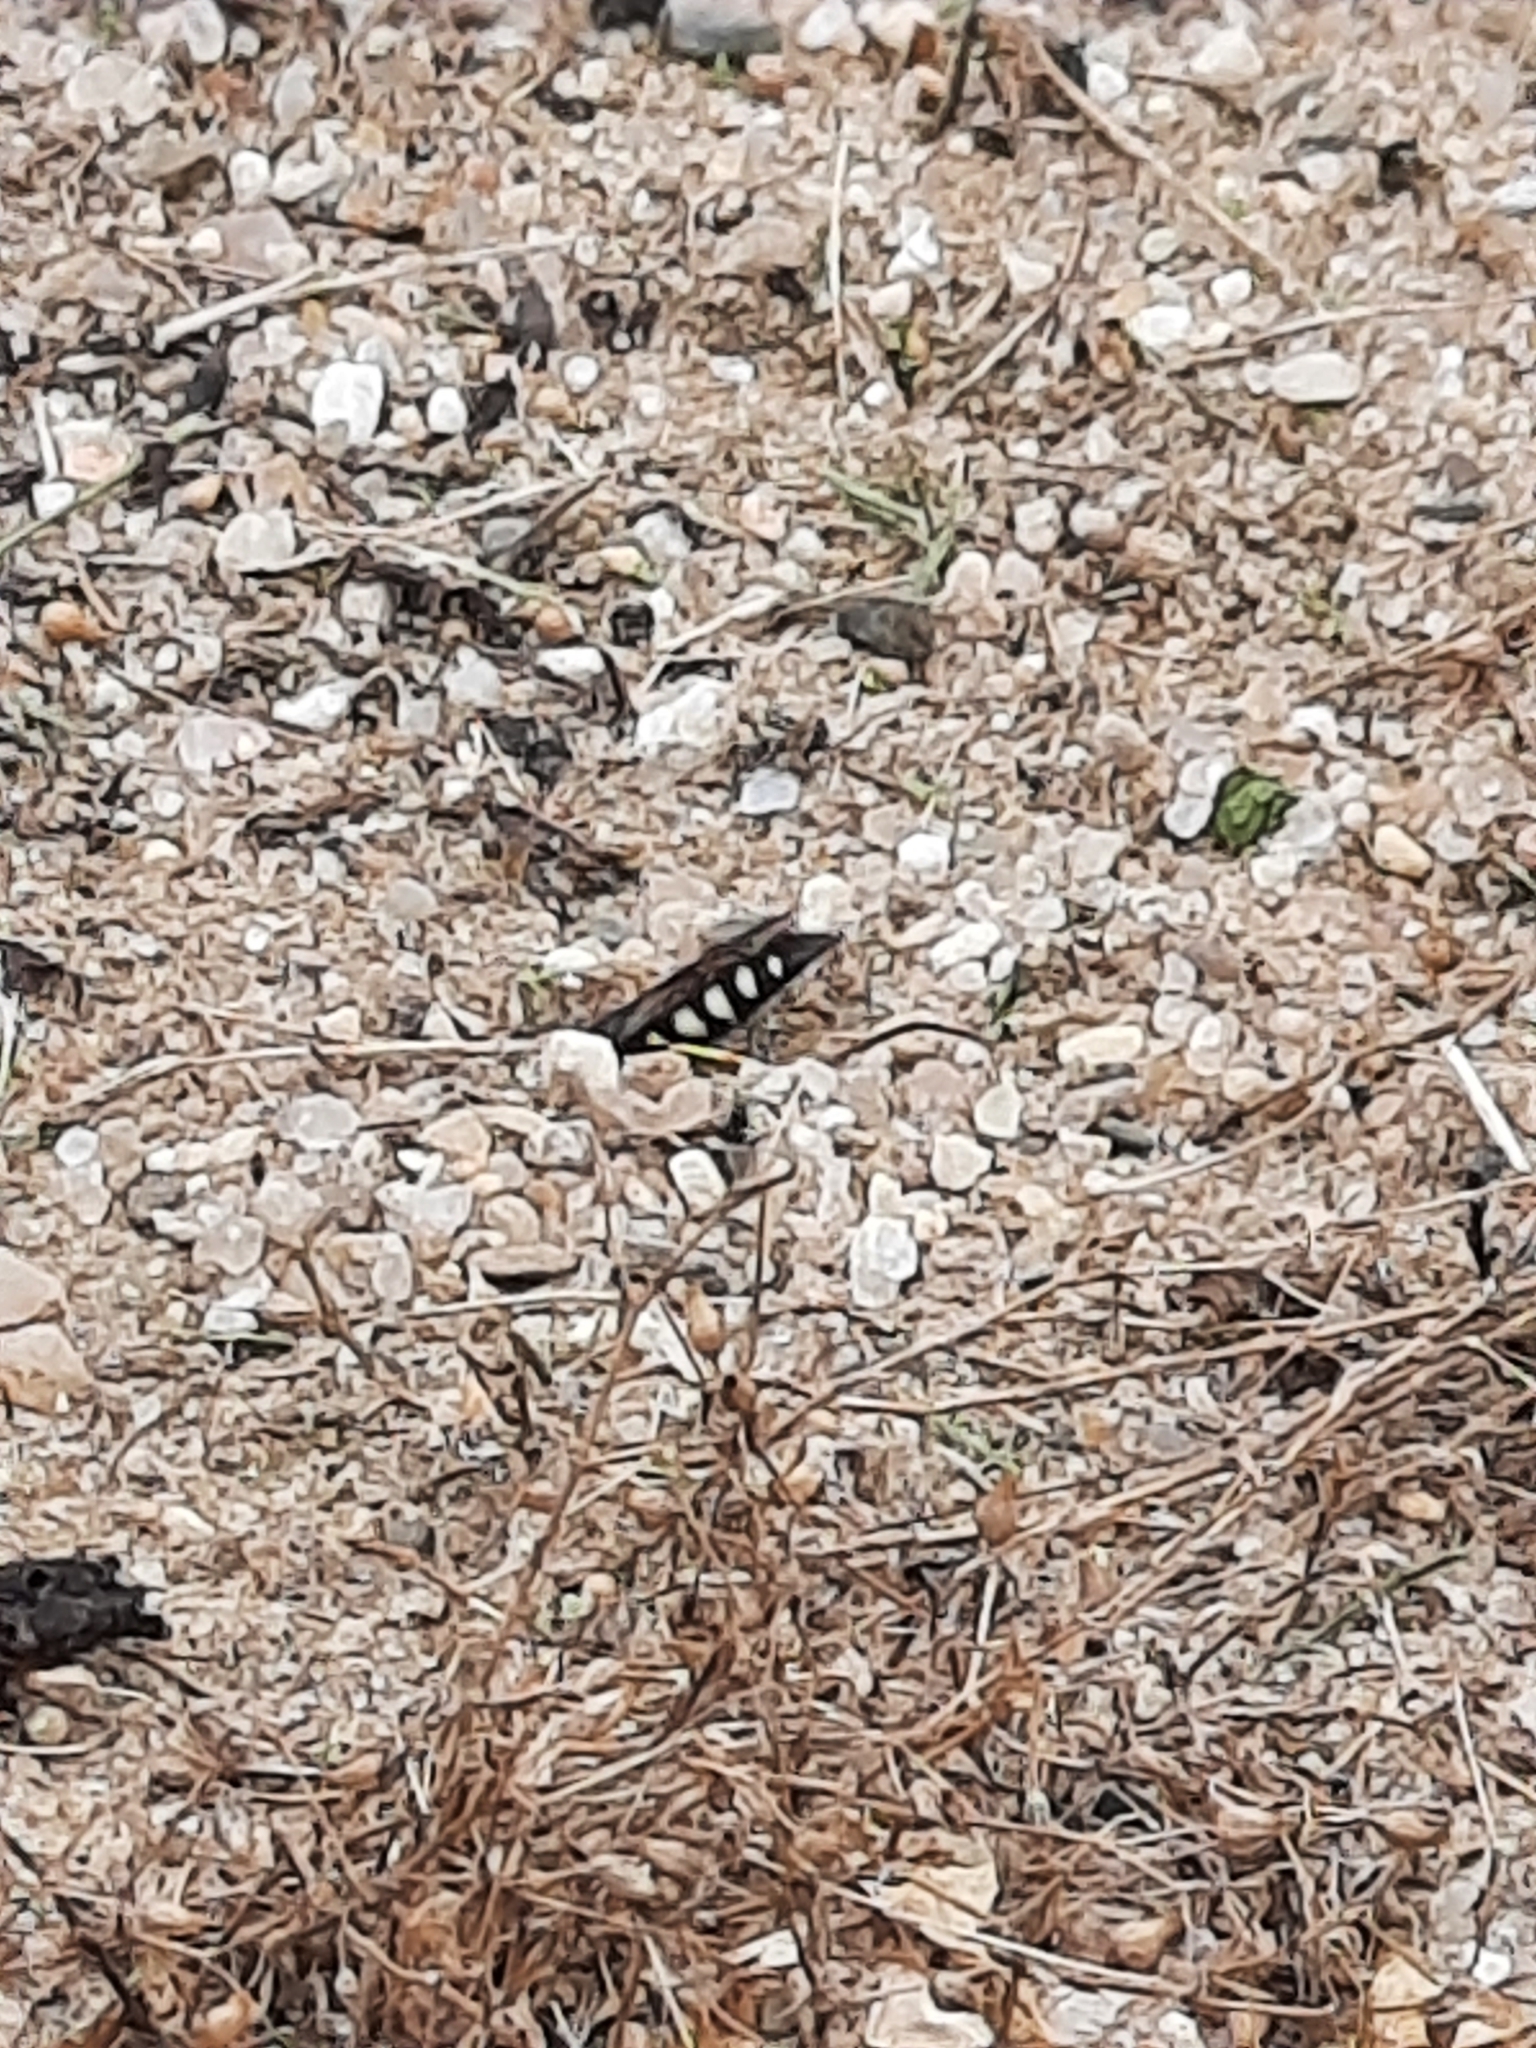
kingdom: Animalia
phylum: Arthropoda
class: Insecta
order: Hymenoptera
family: Crabronidae
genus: Bicyrtes
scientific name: Bicyrtes quadrifasciatus
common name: Four-banded stink bug hunter wasp
